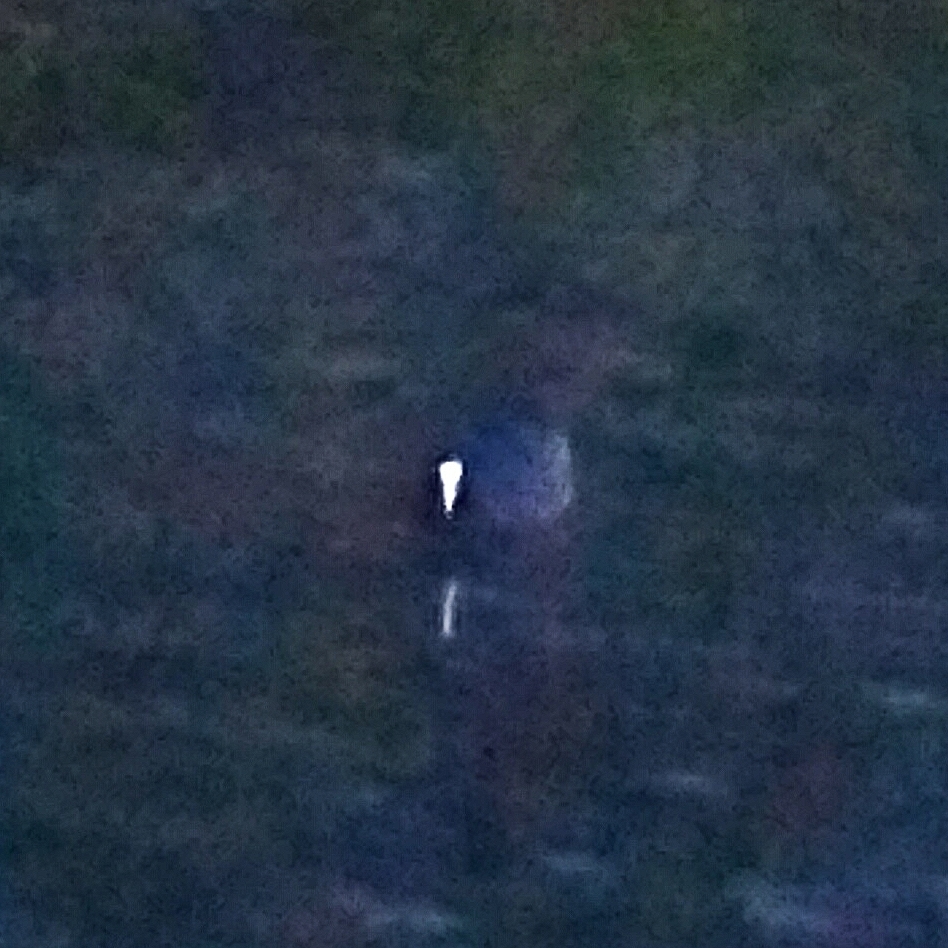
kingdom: Animalia
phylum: Chordata
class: Aves
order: Gruiformes
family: Rallidae
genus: Fulica
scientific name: Fulica atra
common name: Eurasian coot
